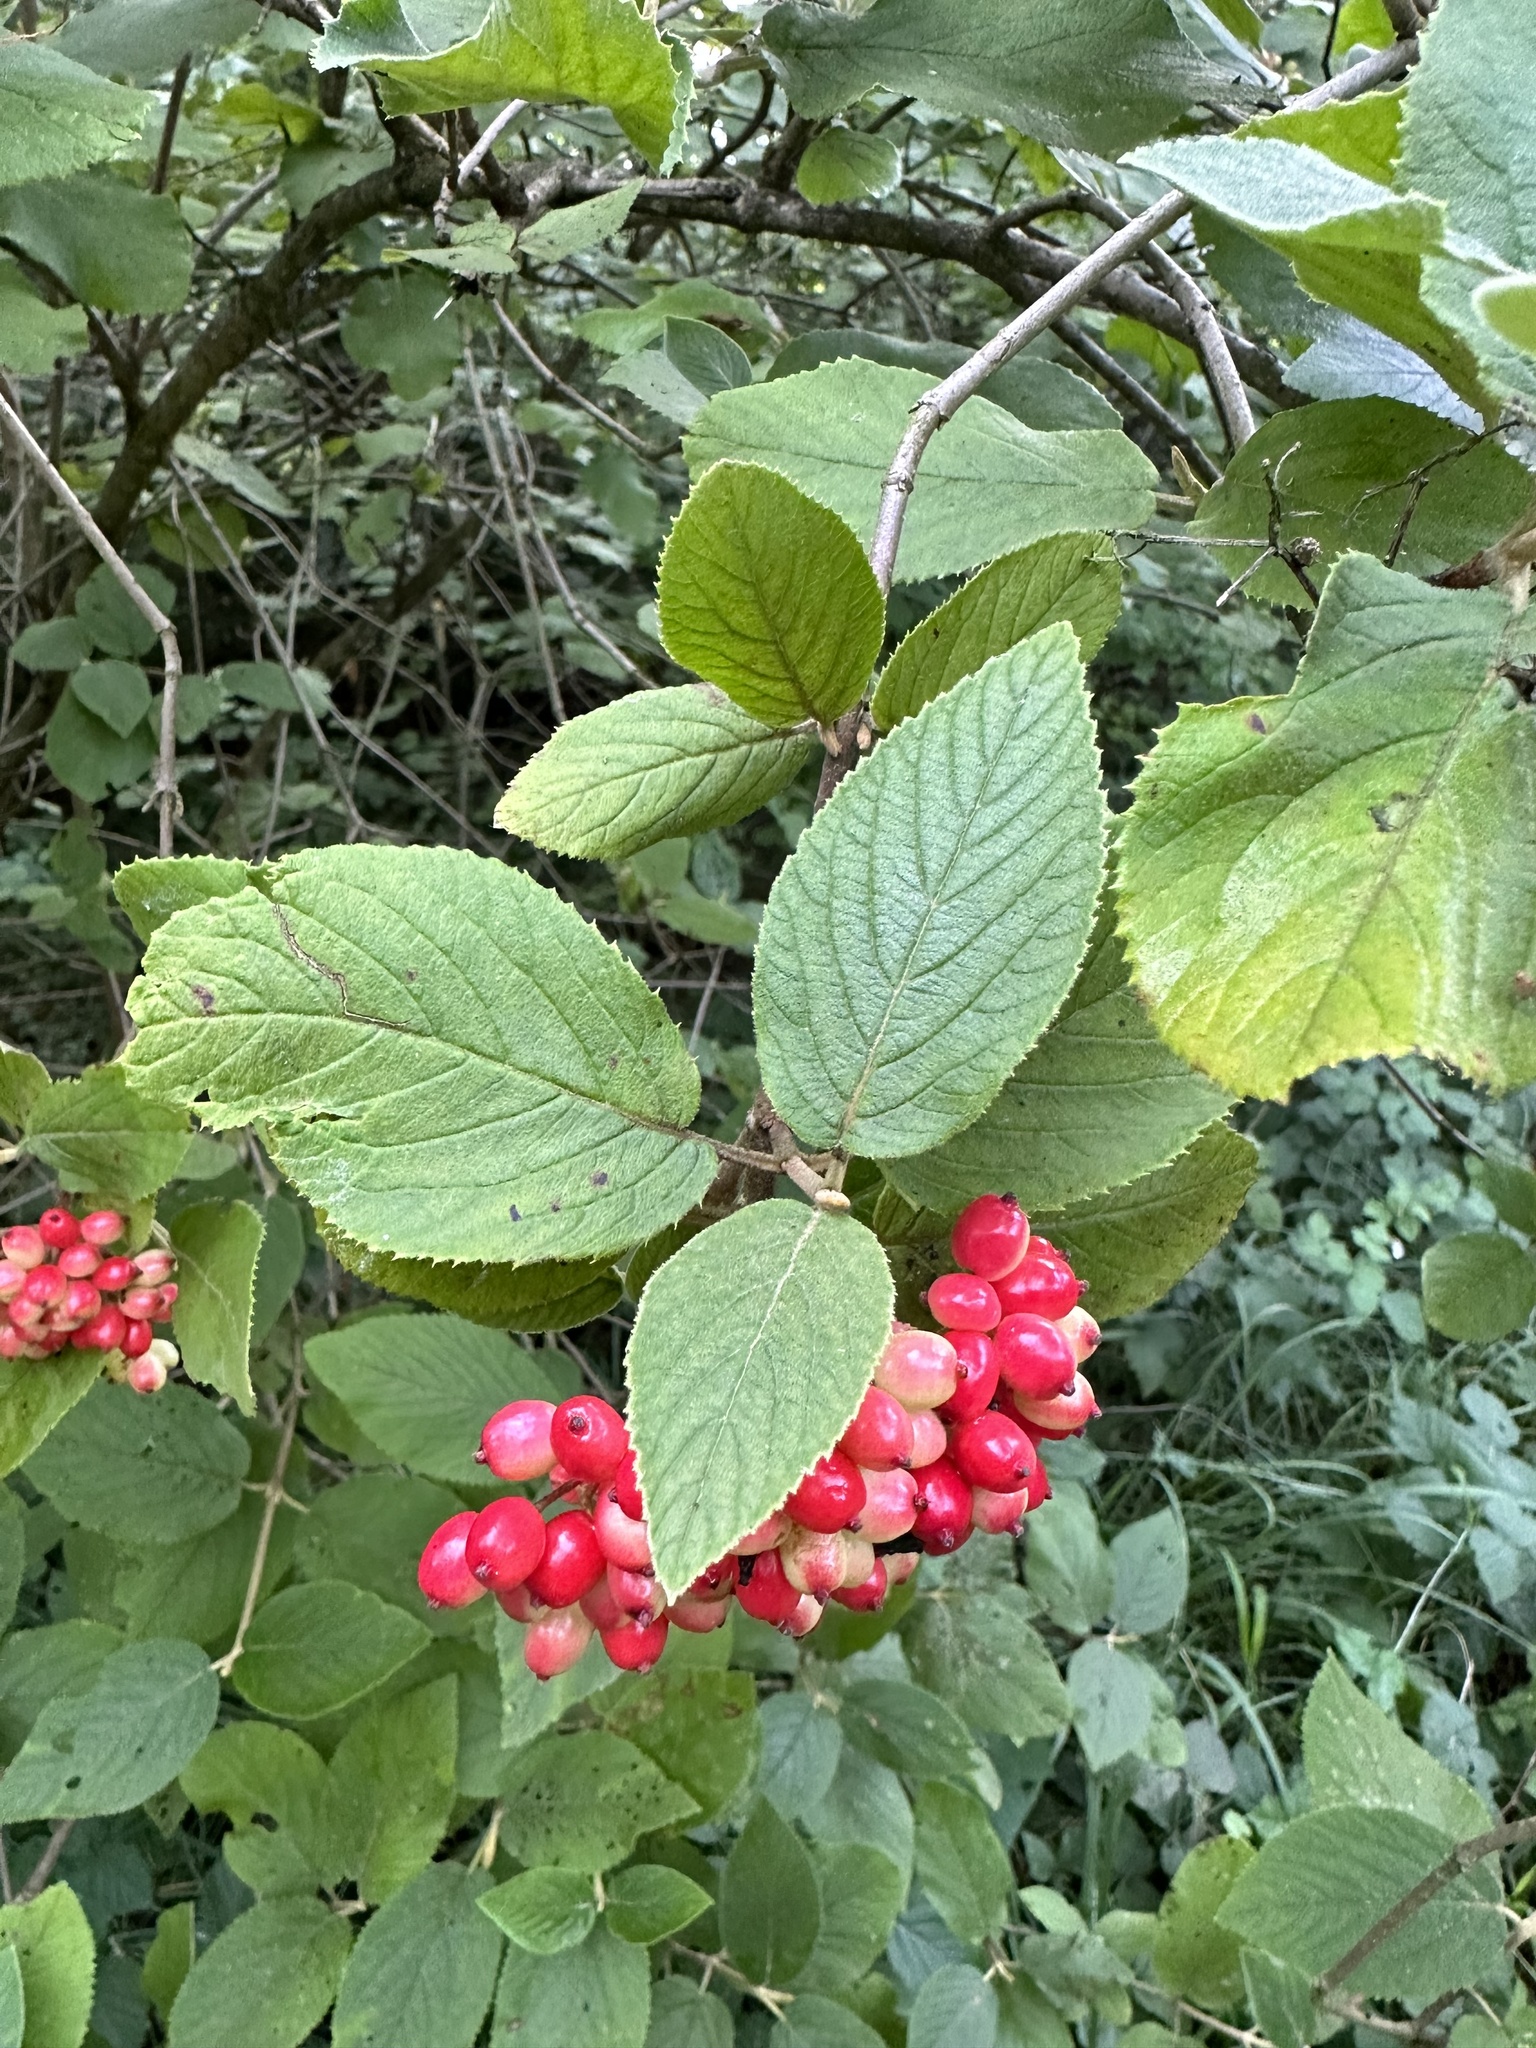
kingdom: Plantae
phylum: Tracheophyta
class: Magnoliopsida
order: Dipsacales
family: Viburnaceae
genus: Viburnum
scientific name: Viburnum lantana
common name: Wayfaring tree
